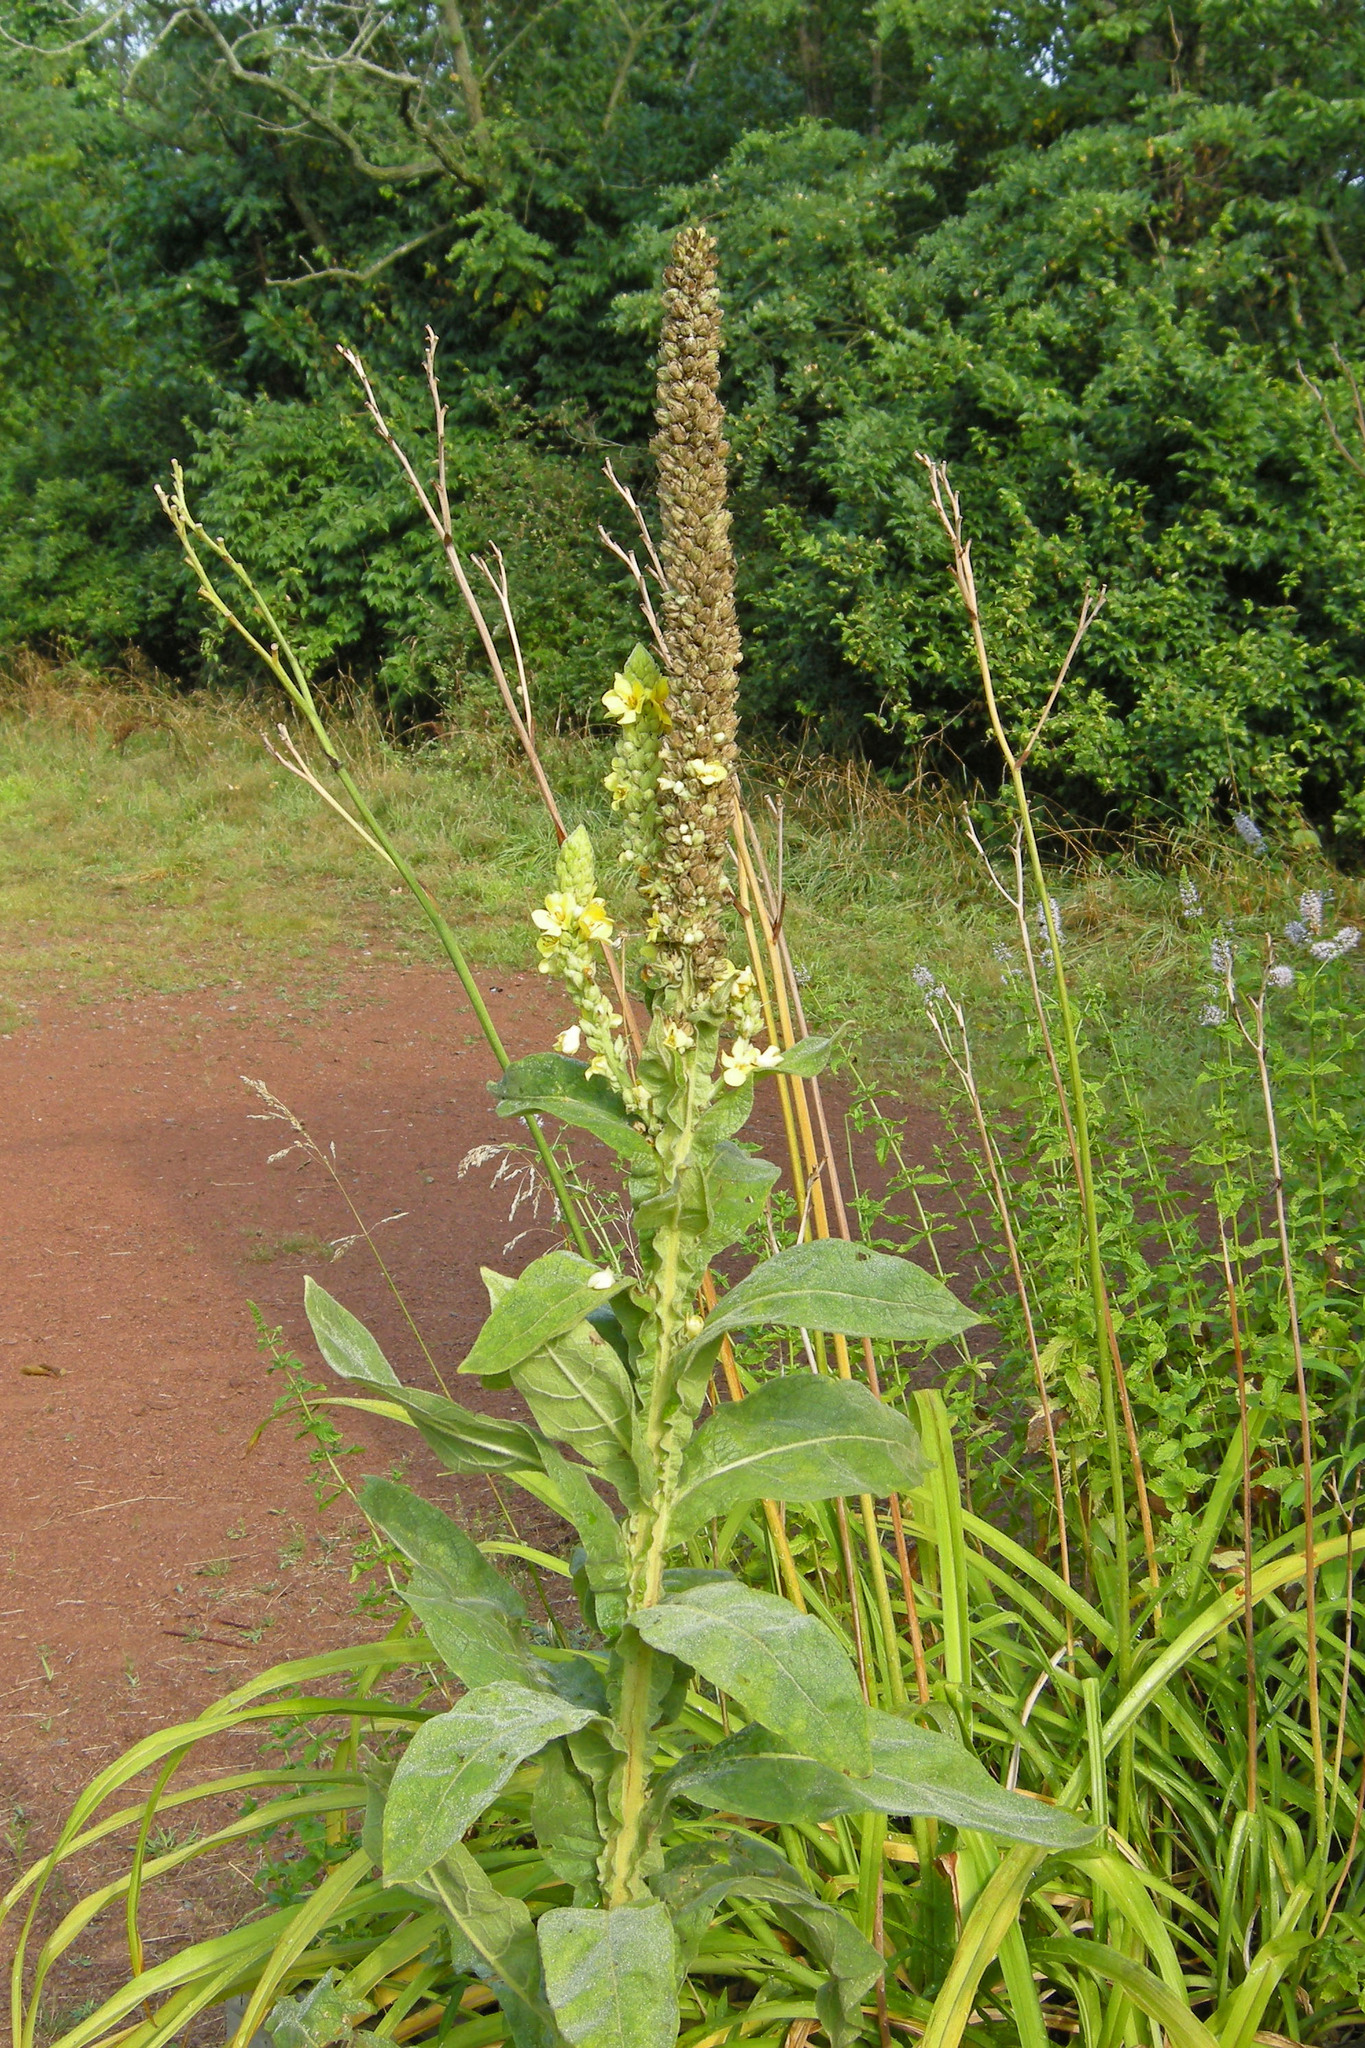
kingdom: Plantae
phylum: Tracheophyta
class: Magnoliopsida
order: Lamiales
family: Scrophulariaceae
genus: Verbascum
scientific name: Verbascum thapsus
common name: Common mullein
